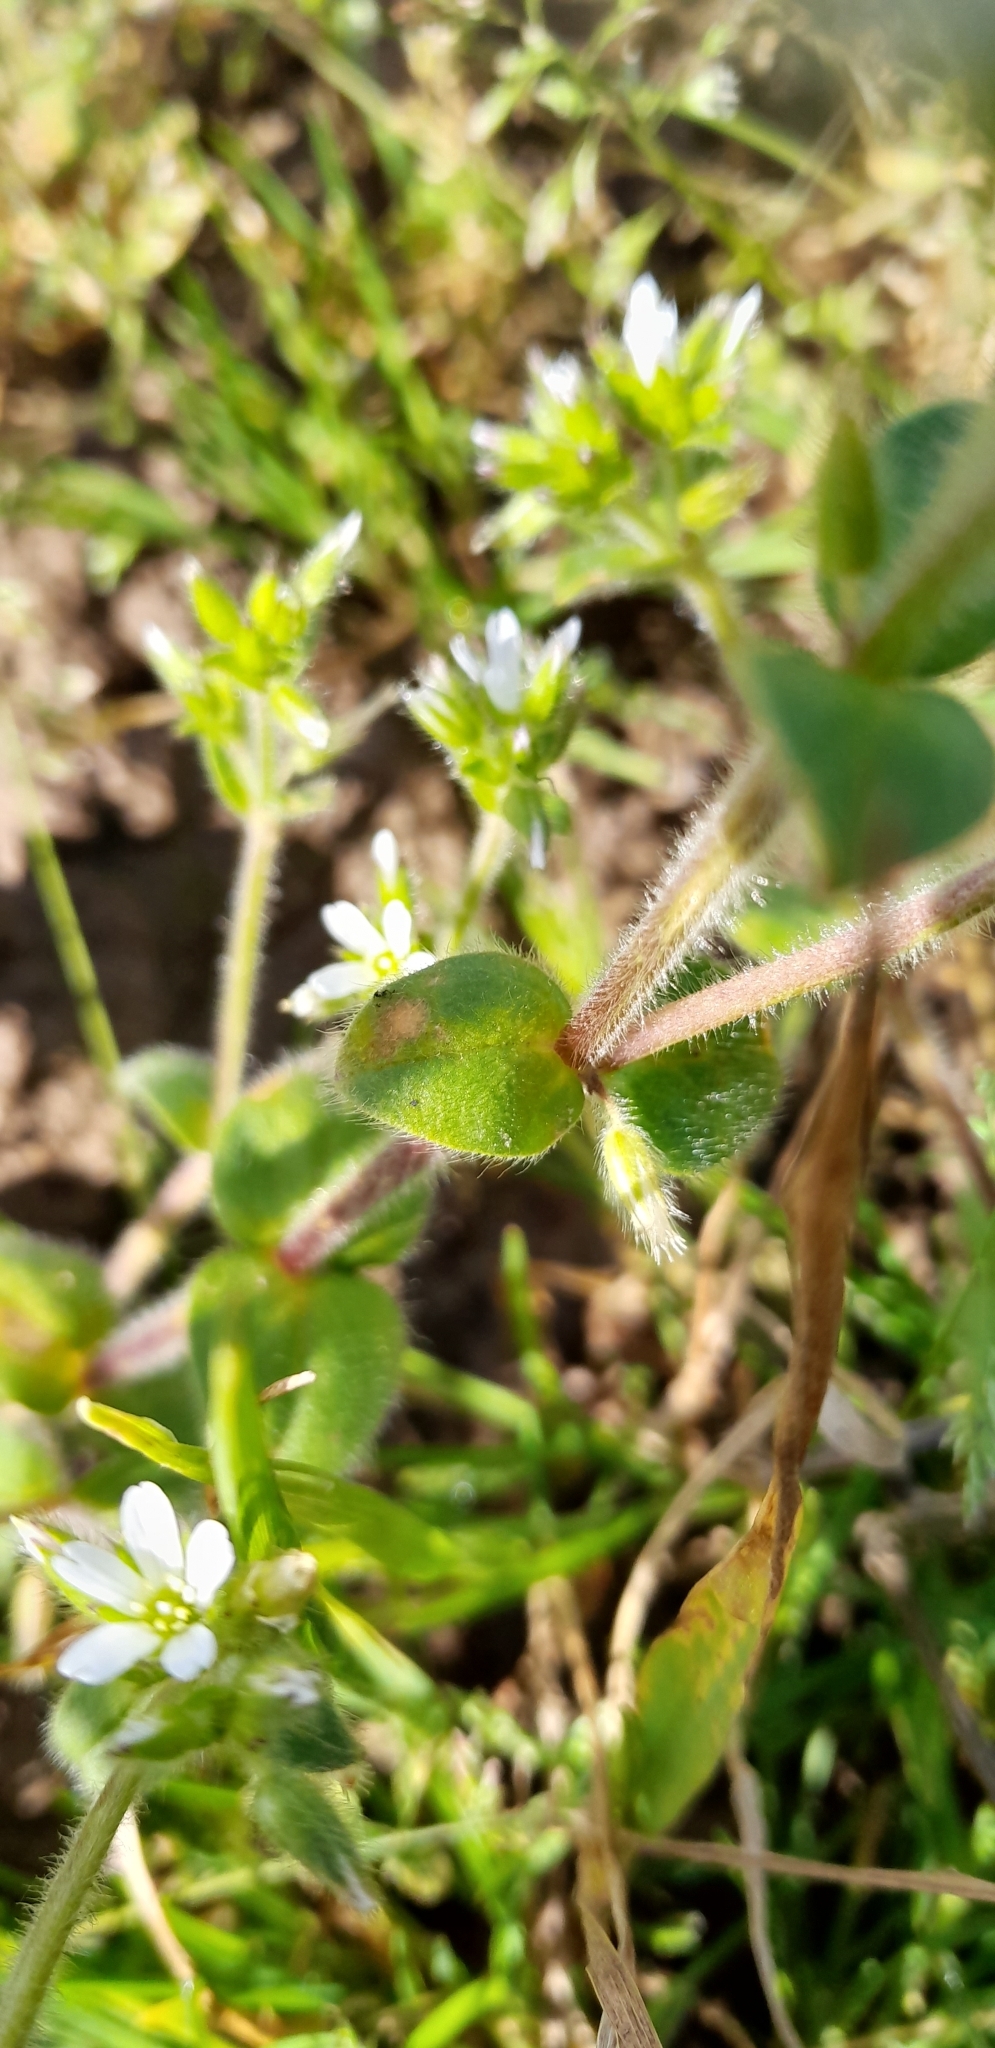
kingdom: Plantae
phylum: Tracheophyta
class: Magnoliopsida
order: Caryophyllales
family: Caryophyllaceae
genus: Cerastium
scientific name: Cerastium glomeratum
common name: Sticky chickweed
